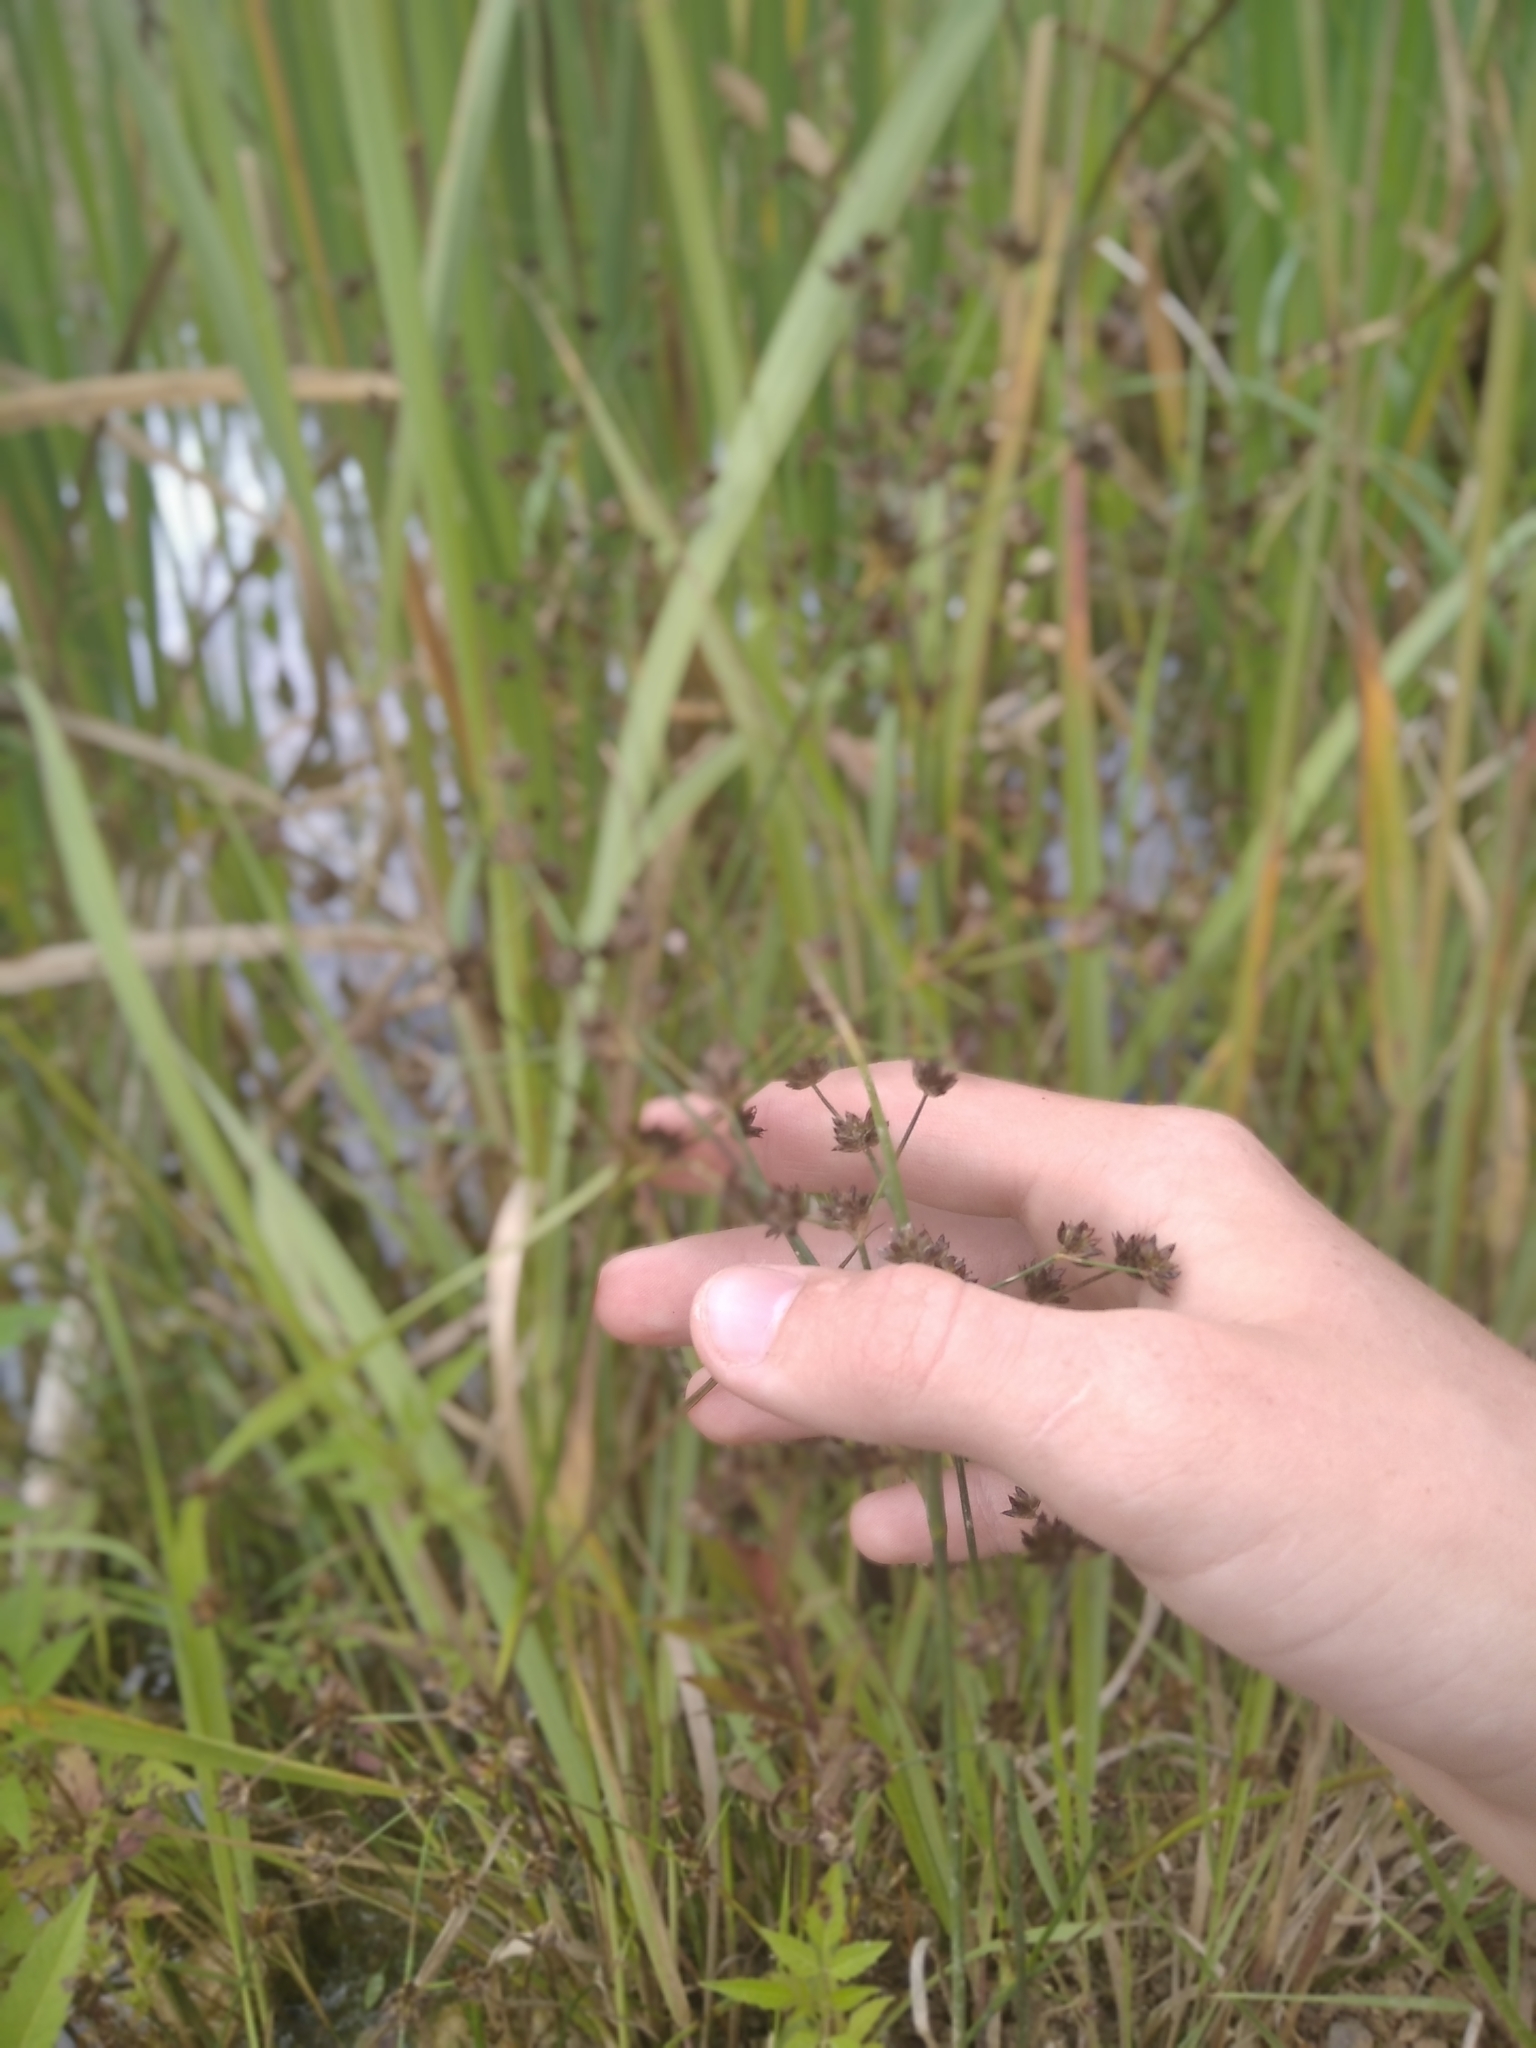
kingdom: Plantae
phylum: Tracheophyta
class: Liliopsida
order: Poales
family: Juncaceae
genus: Juncus
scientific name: Juncus articulatus
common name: Jointed rush
